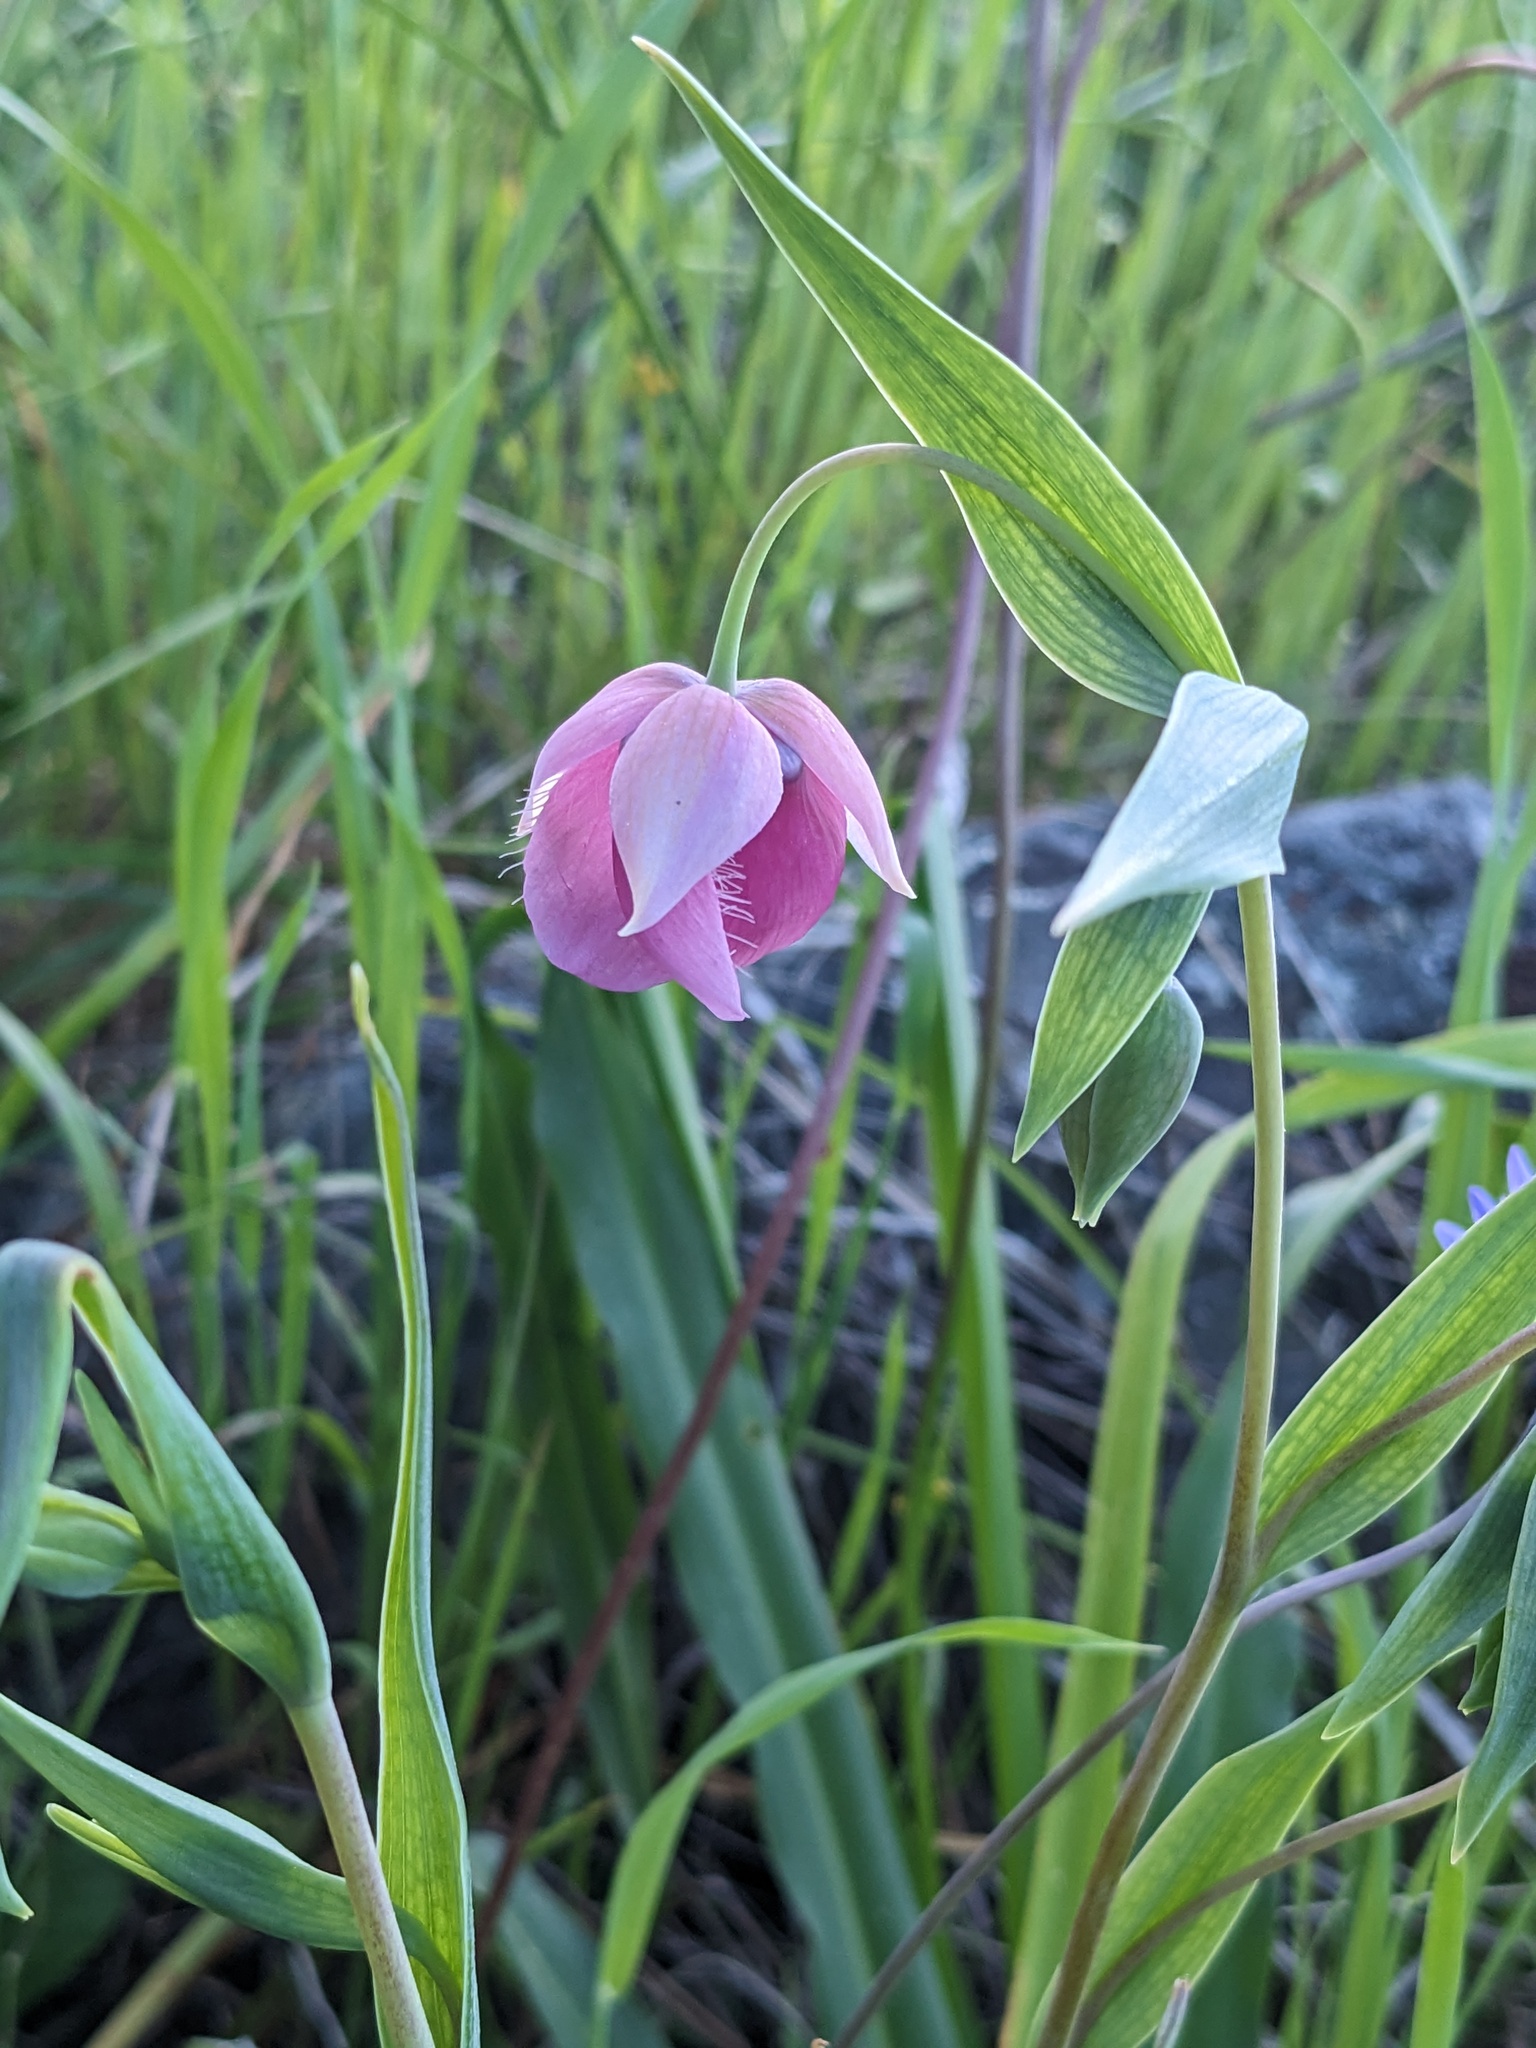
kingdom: Plantae
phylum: Tracheophyta
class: Liliopsida
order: Liliales
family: Liliaceae
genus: Calochortus
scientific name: Calochortus amoenus
